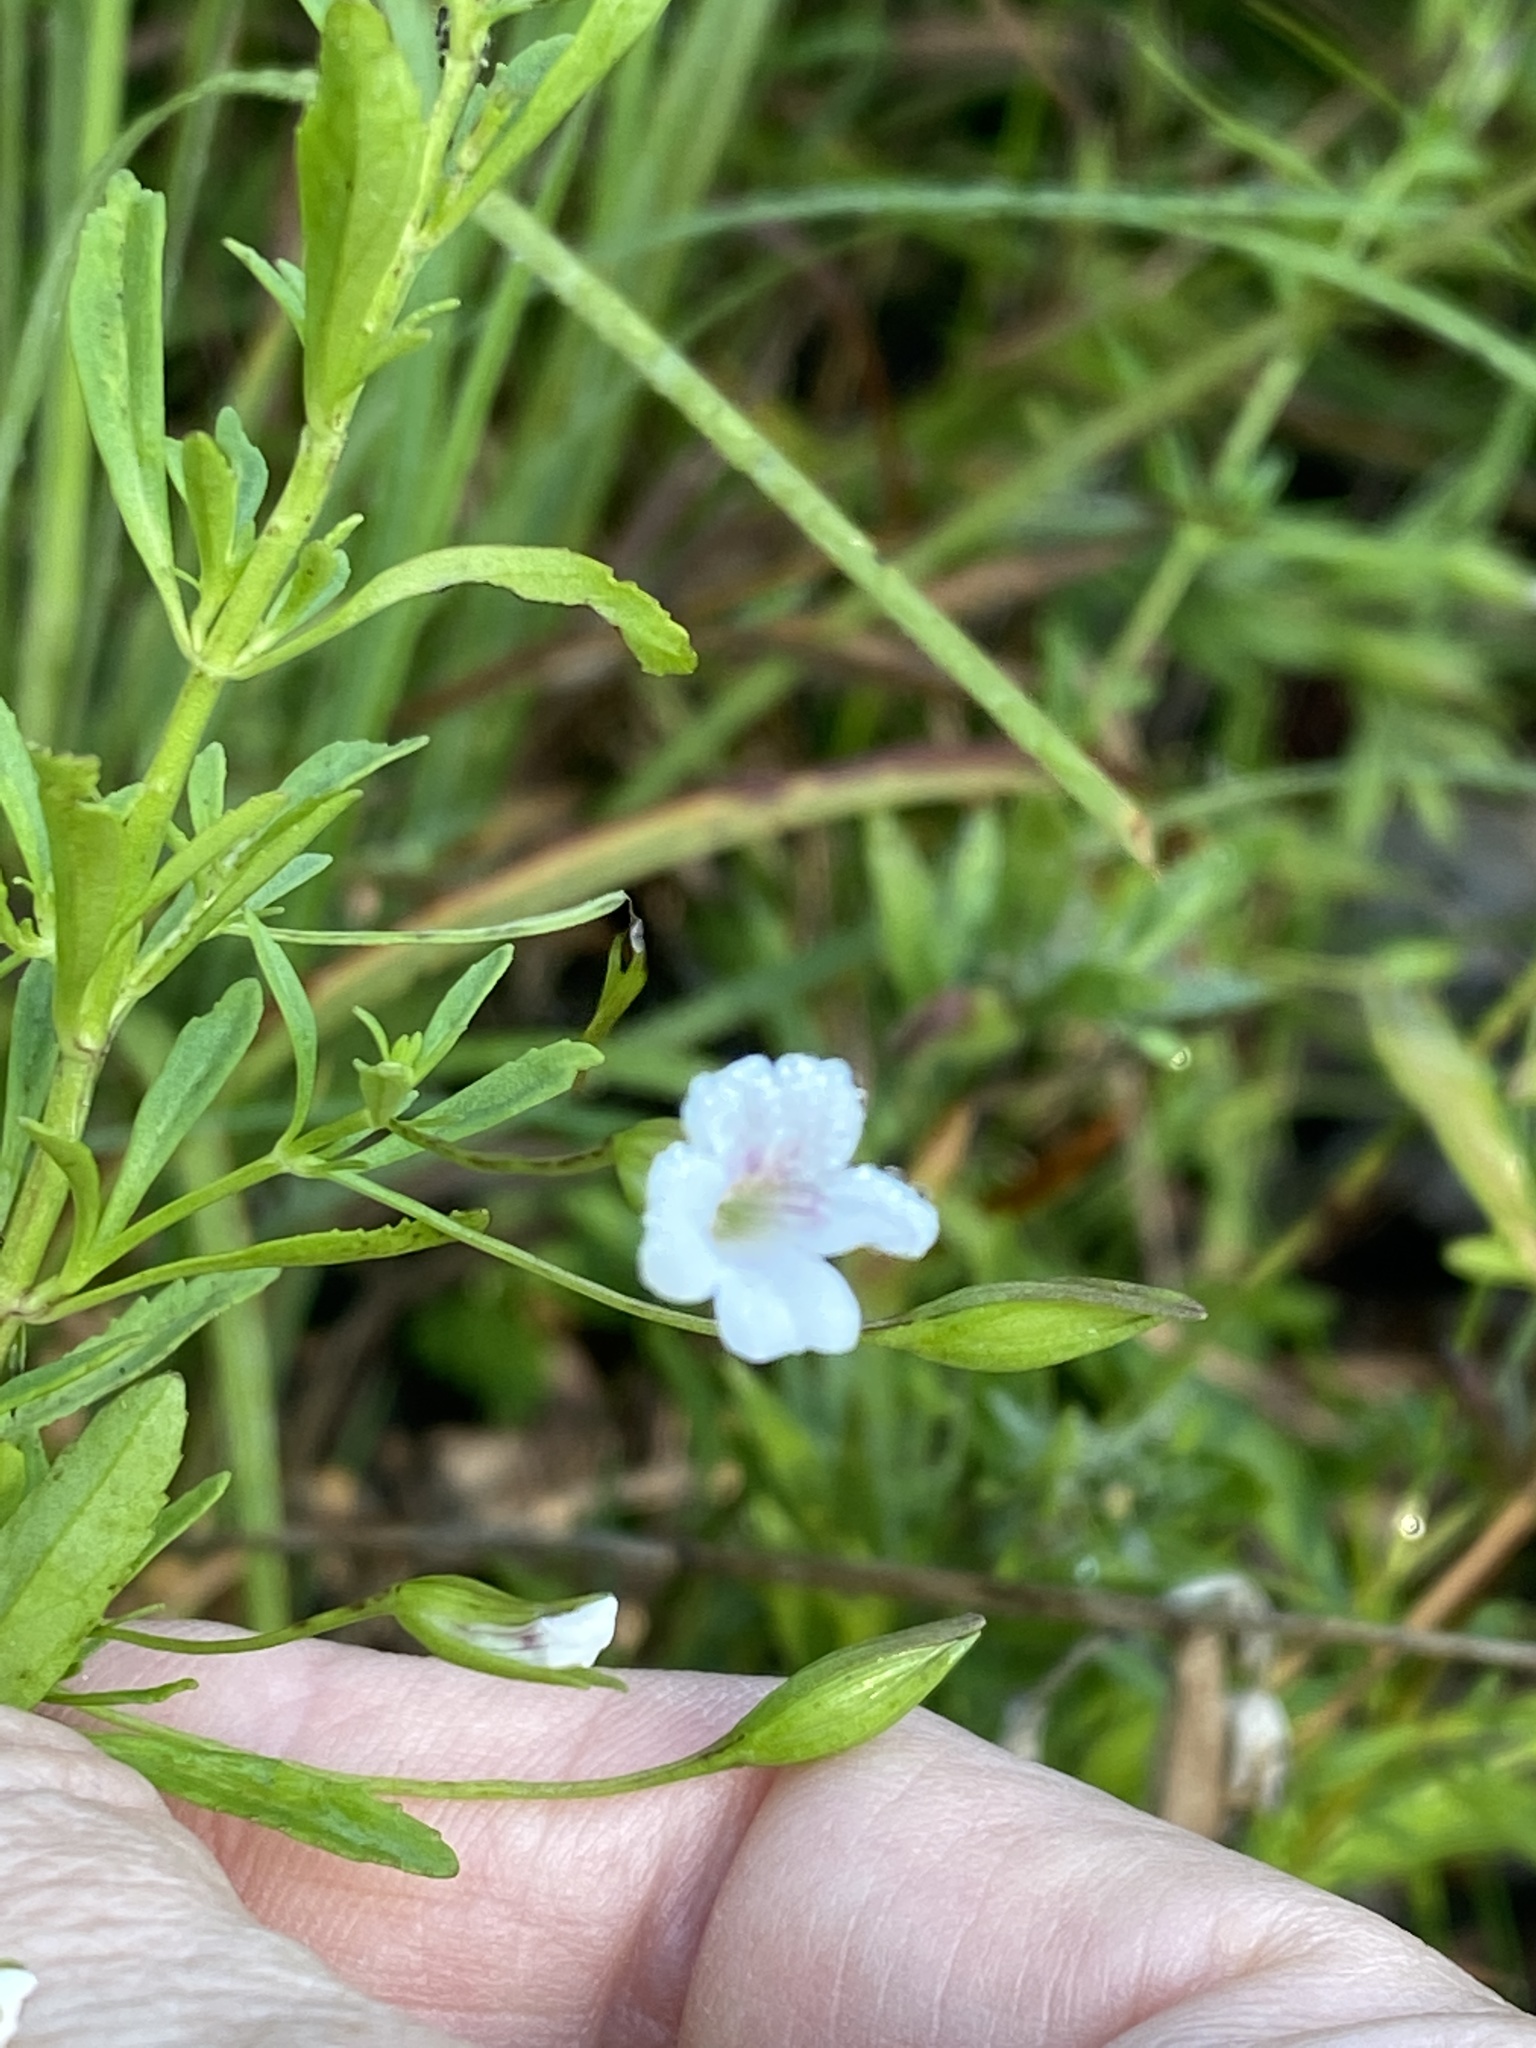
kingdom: Plantae
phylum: Tracheophyta
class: Magnoliopsida
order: Lamiales
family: Plantaginaceae
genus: Mecardonia
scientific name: Mecardonia acuminata
